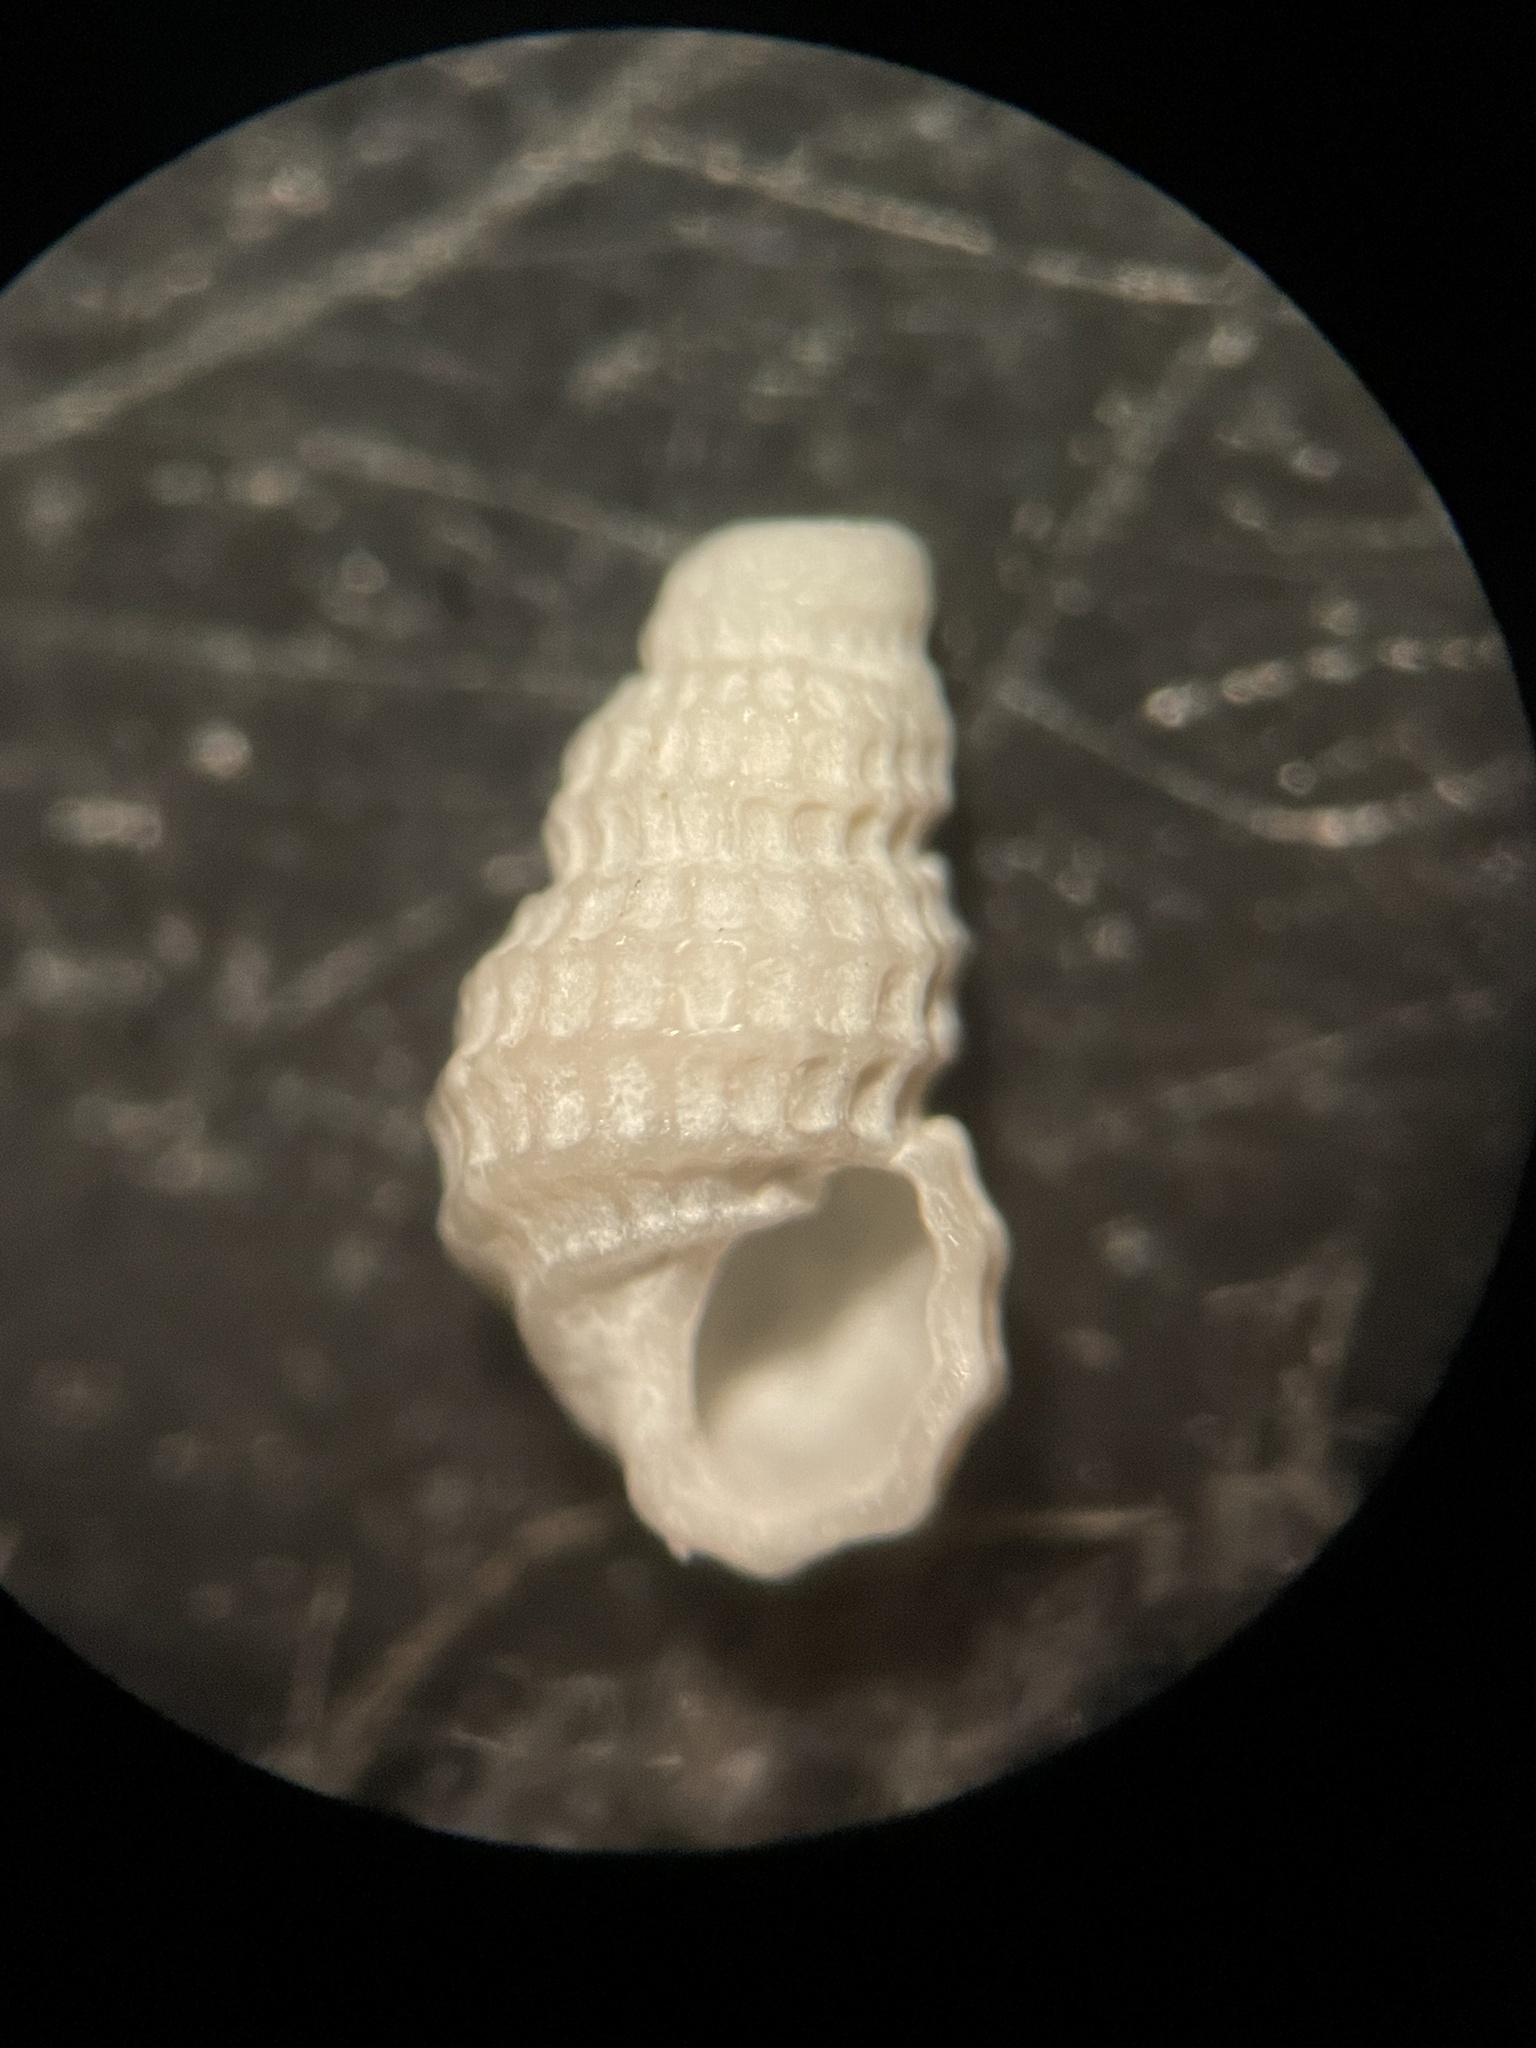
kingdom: Animalia
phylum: Mollusca
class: Gastropoda
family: Pyramidellidae
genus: Peristichia
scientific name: Peristichia agria
